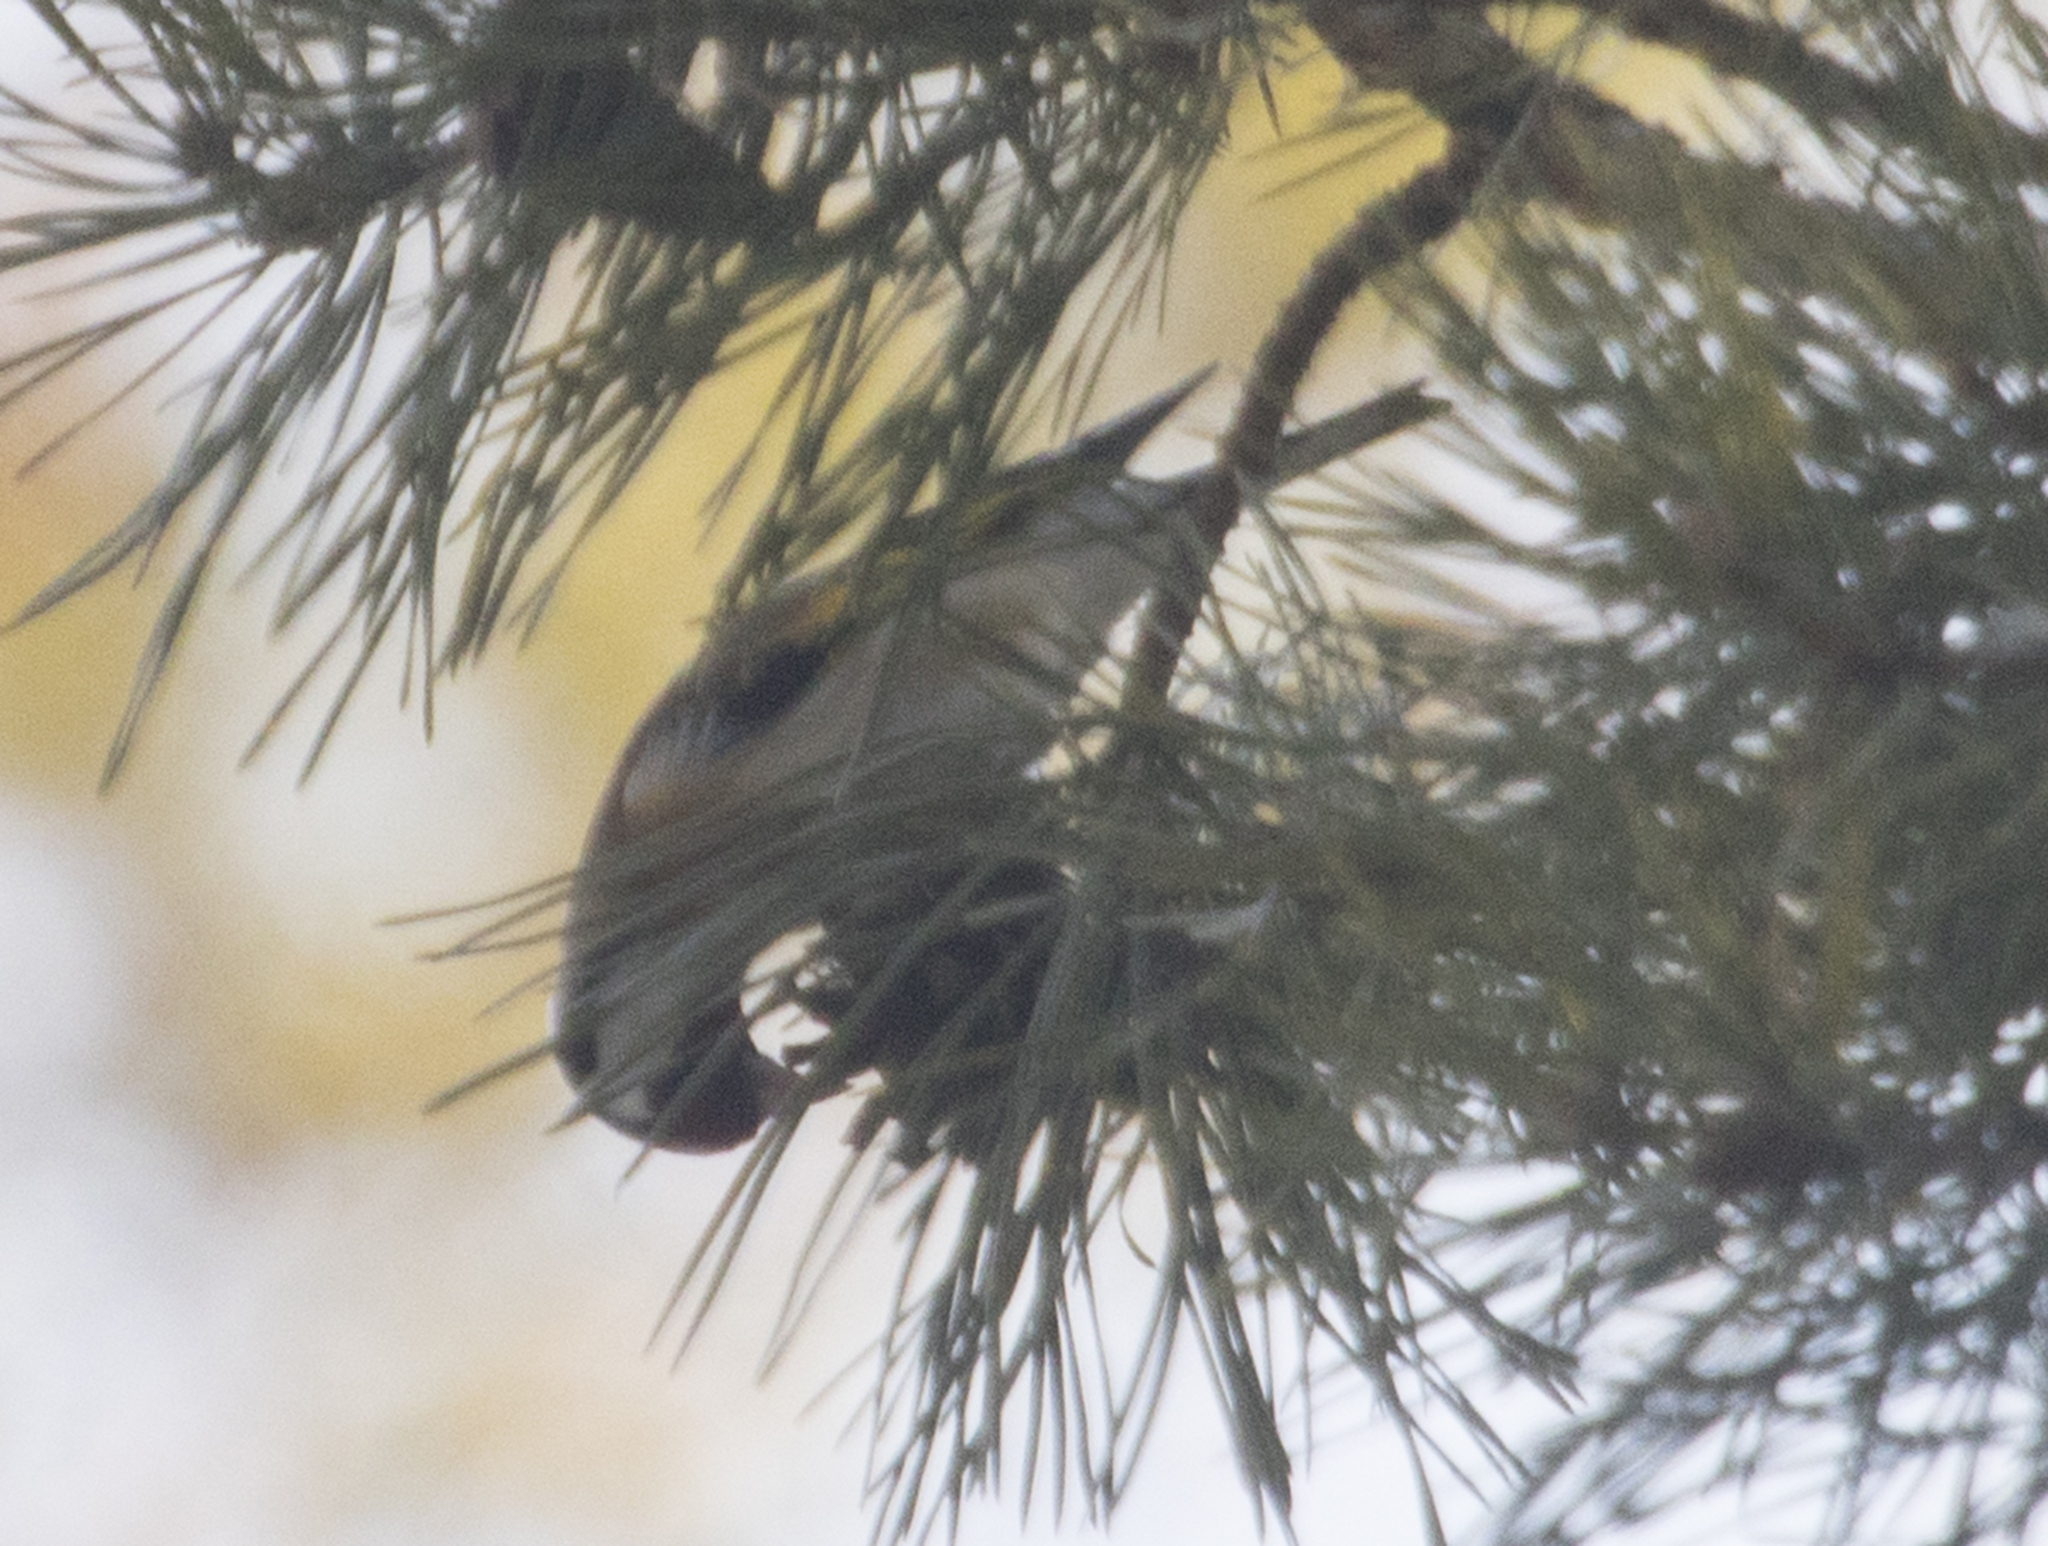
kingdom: Animalia
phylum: Chordata
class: Aves
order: Passeriformes
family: Fringillidae
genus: Carduelis
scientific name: Carduelis carduelis
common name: European goldfinch
